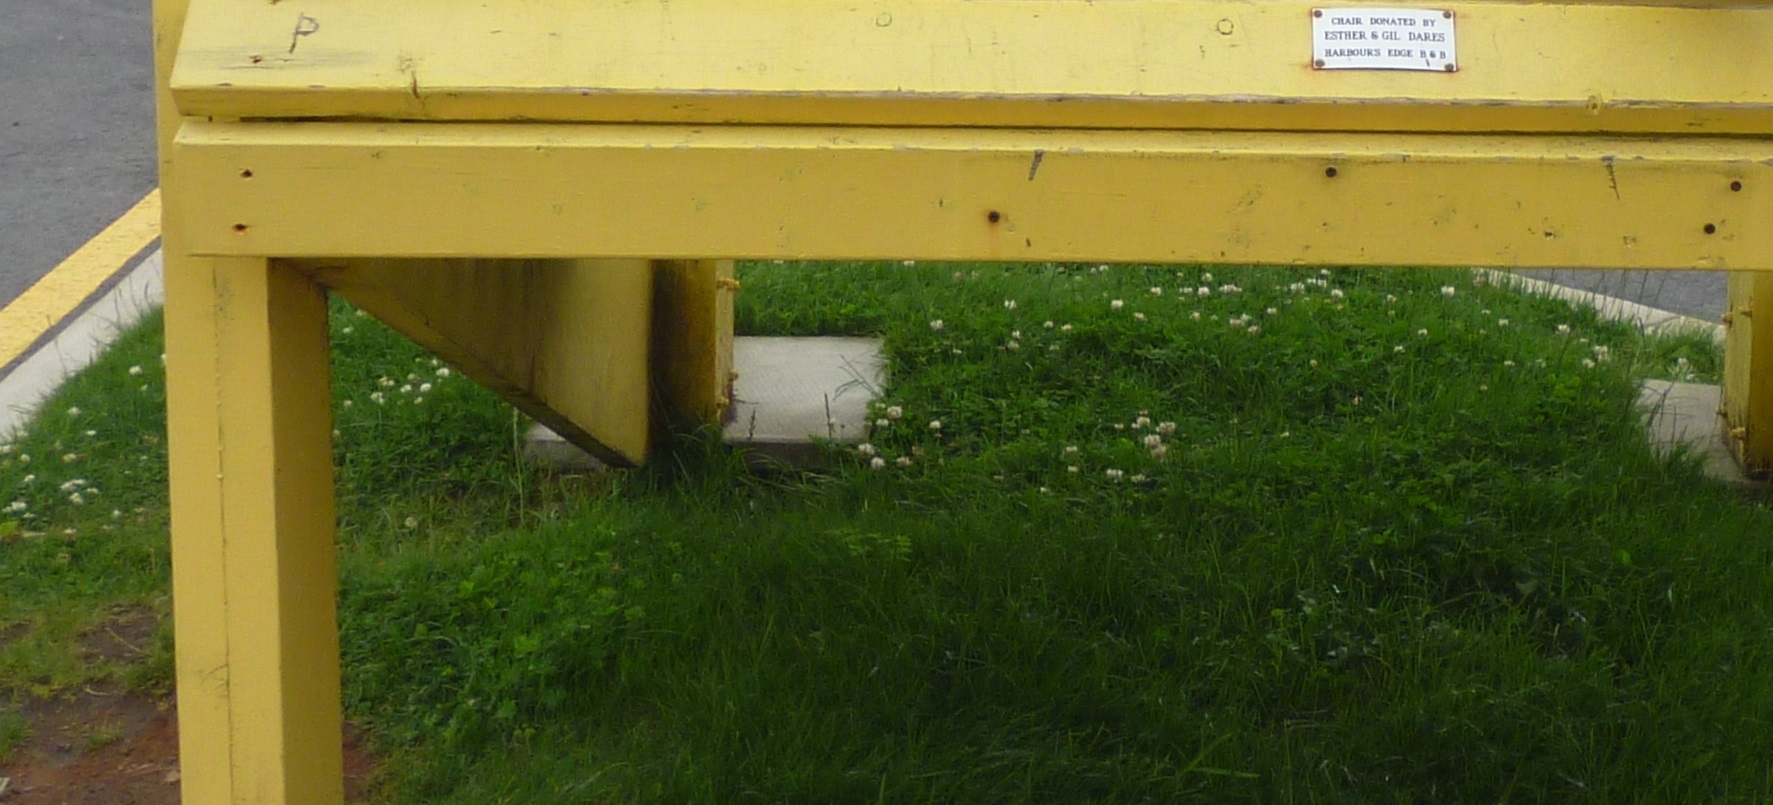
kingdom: Plantae
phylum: Tracheophyta
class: Magnoliopsida
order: Fabales
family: Fabaceae
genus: Trifolium
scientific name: Trifolium repens
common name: White clover
